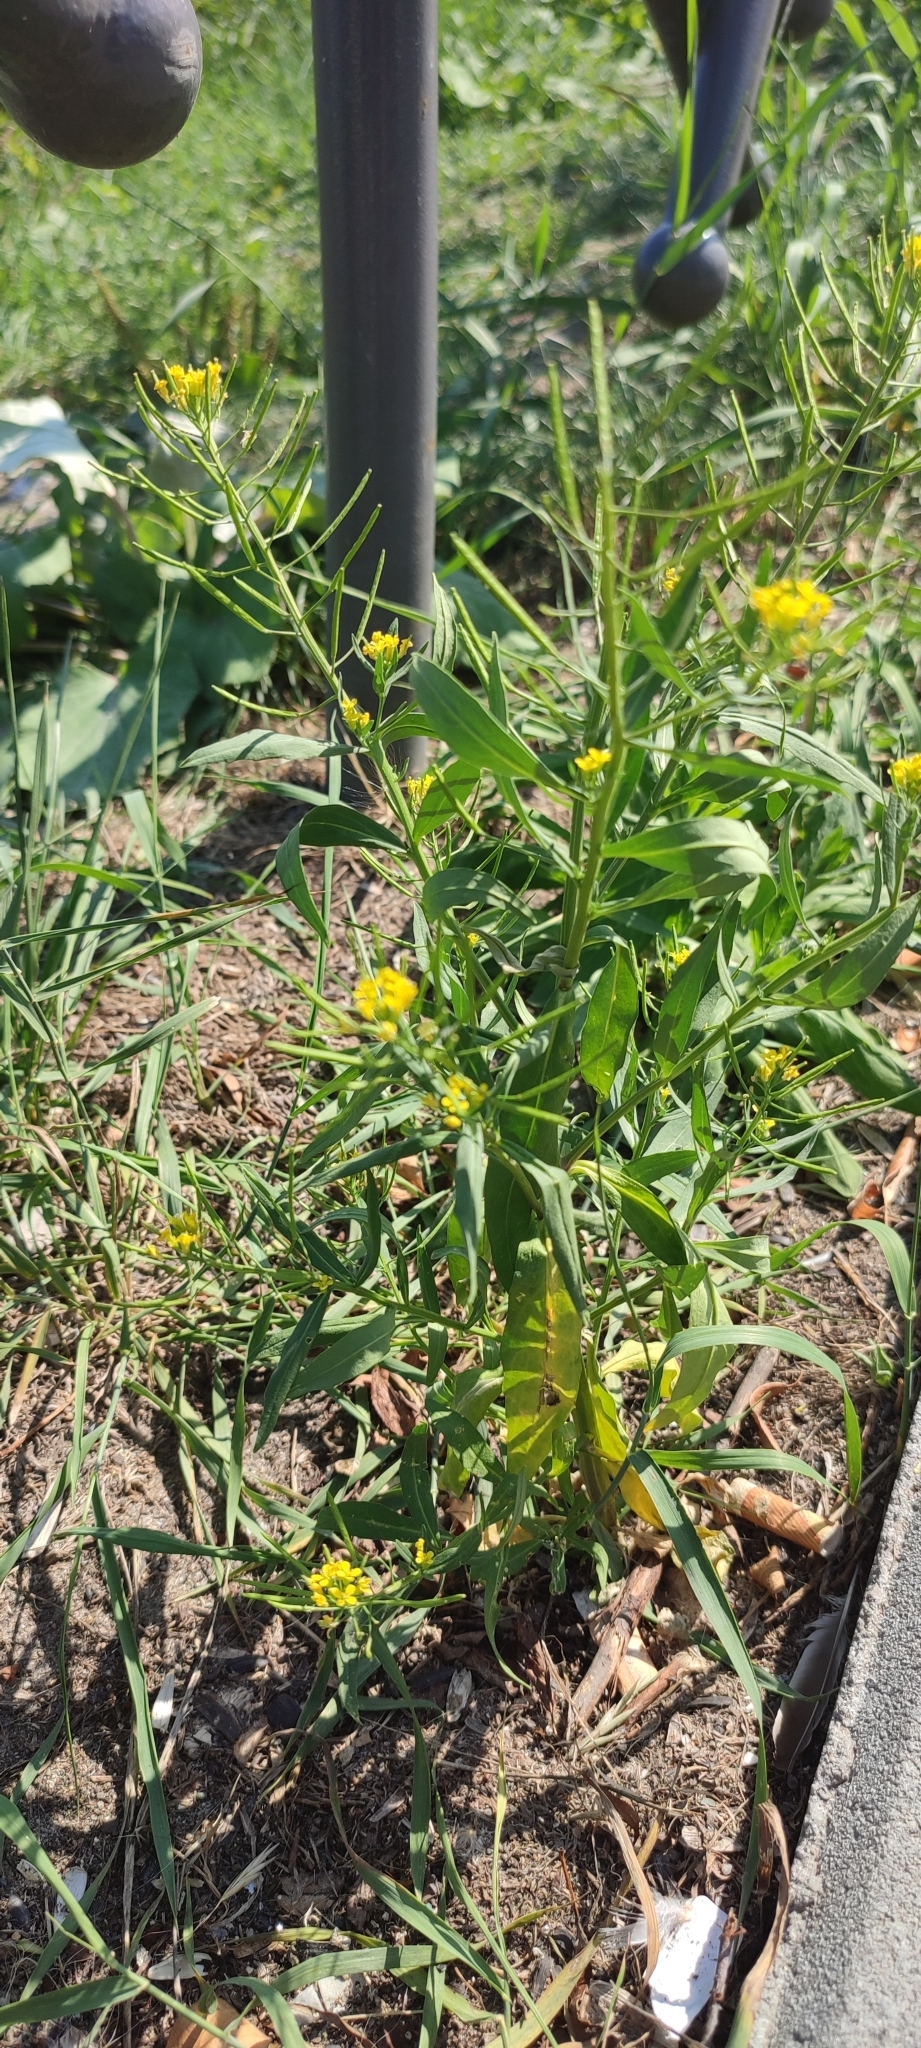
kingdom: Plantae
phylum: Tracheophyta
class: Magnoliopsida
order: Brassicales
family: Brassicaceae
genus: Erysimum
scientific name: Erysimum cheiranthoides
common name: Treacle mustard
